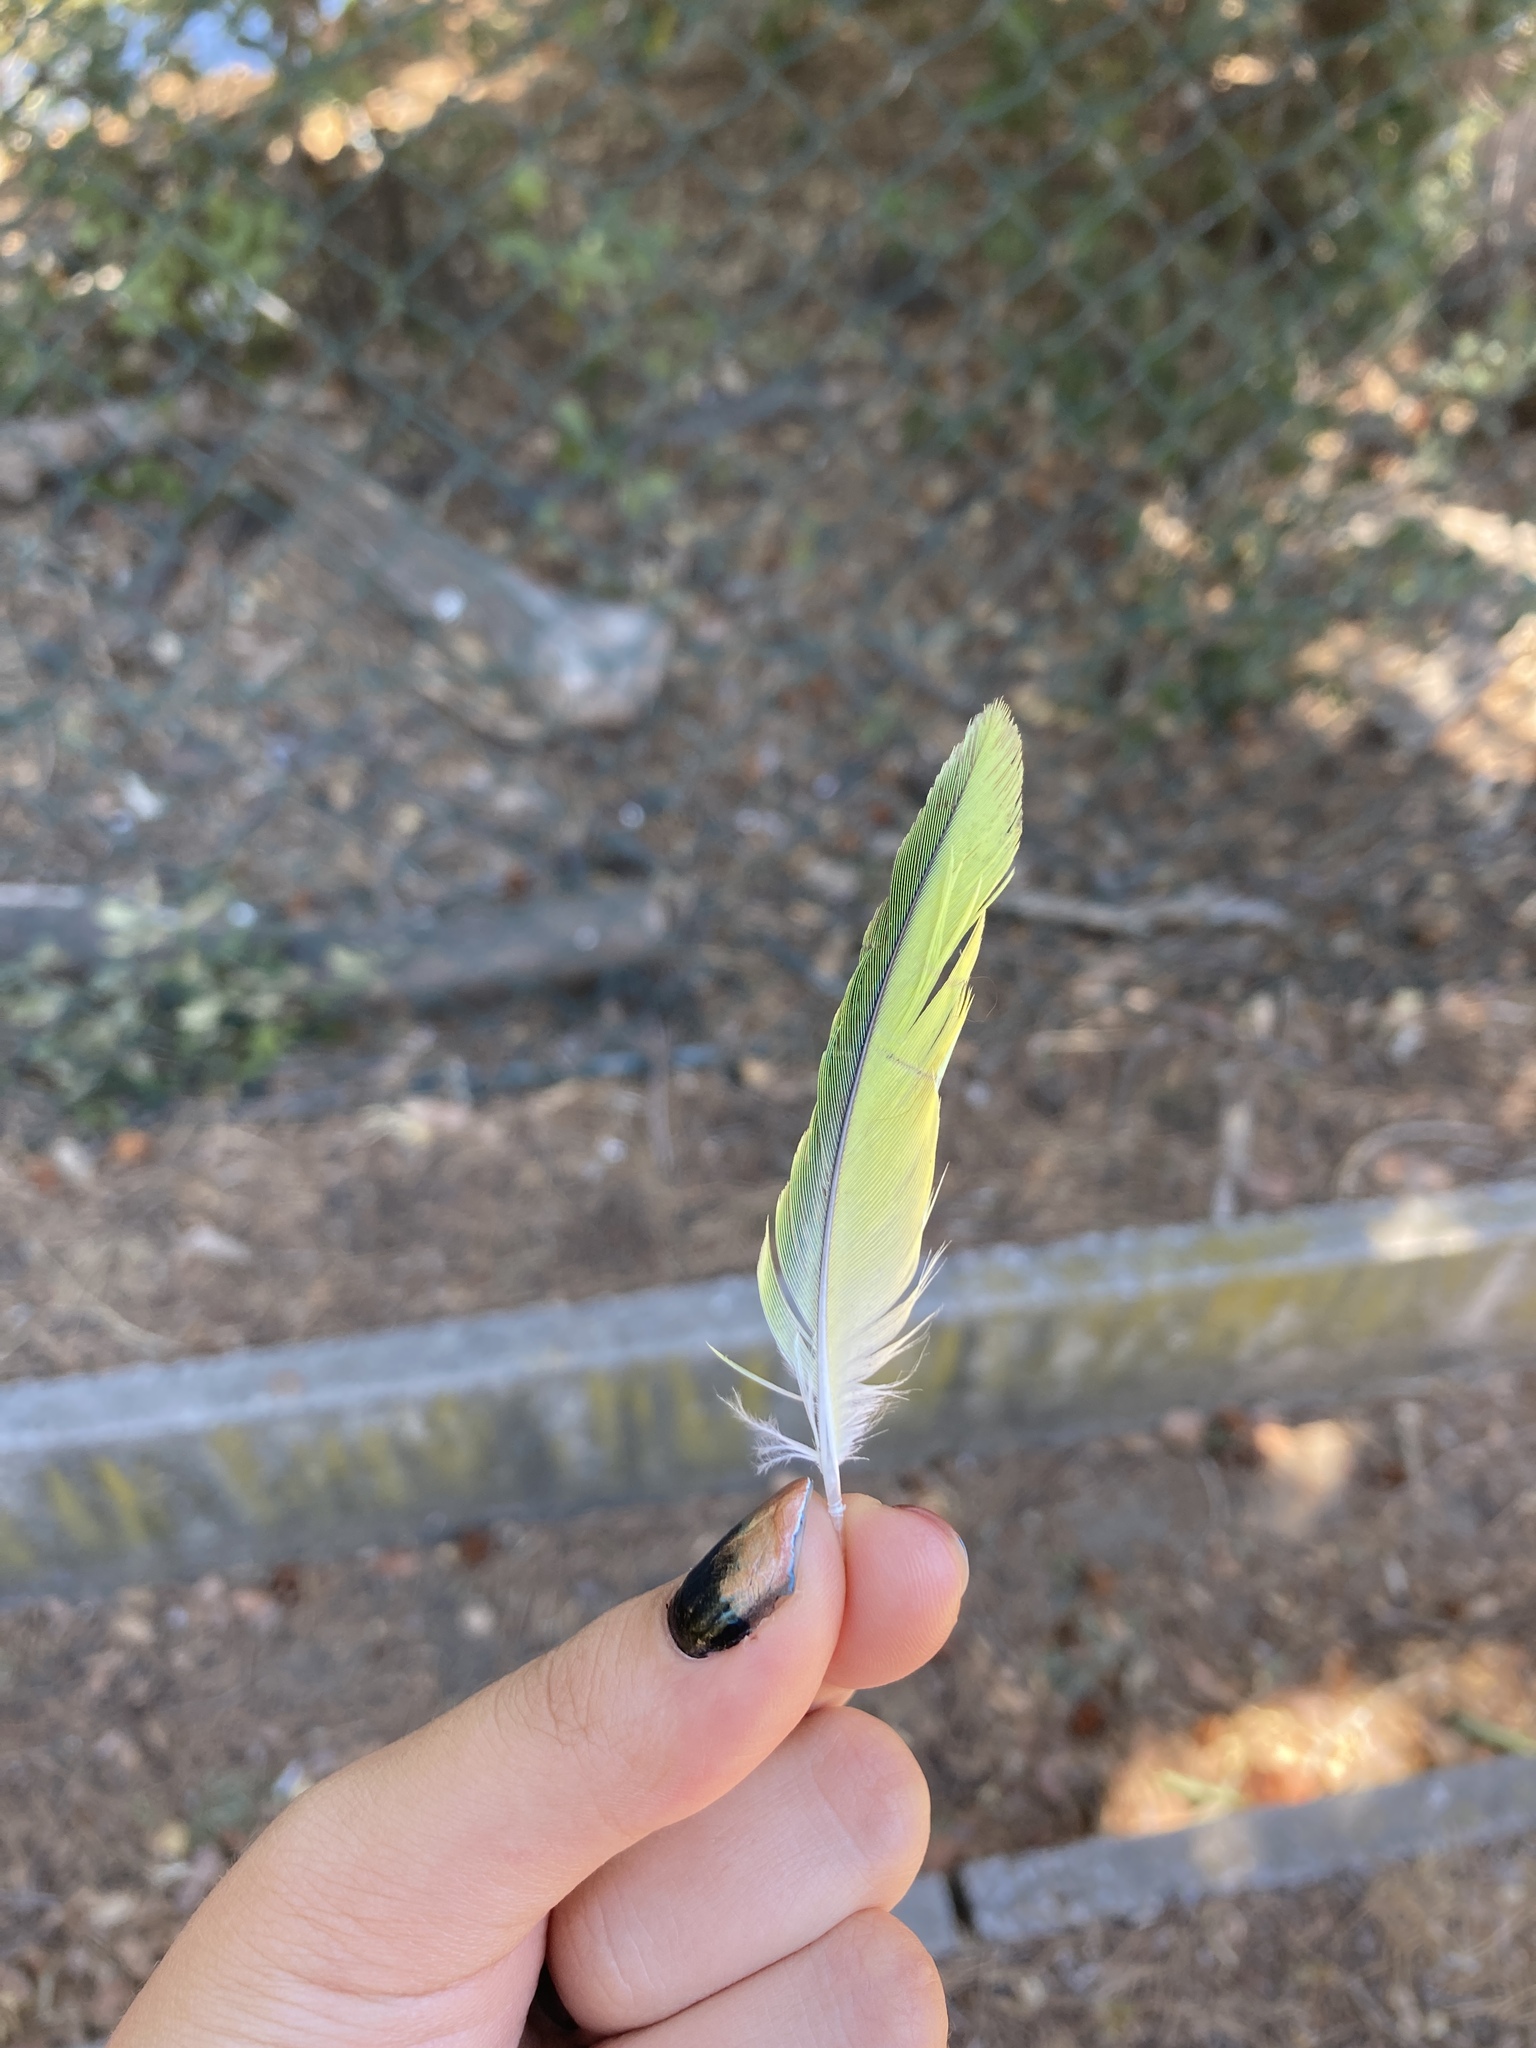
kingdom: Animalia
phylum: Chordata
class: Aves
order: Psittaciformes
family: Psittacidae
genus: Myiopsitta
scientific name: Myiopsitta monachus
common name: Monk parakeet
